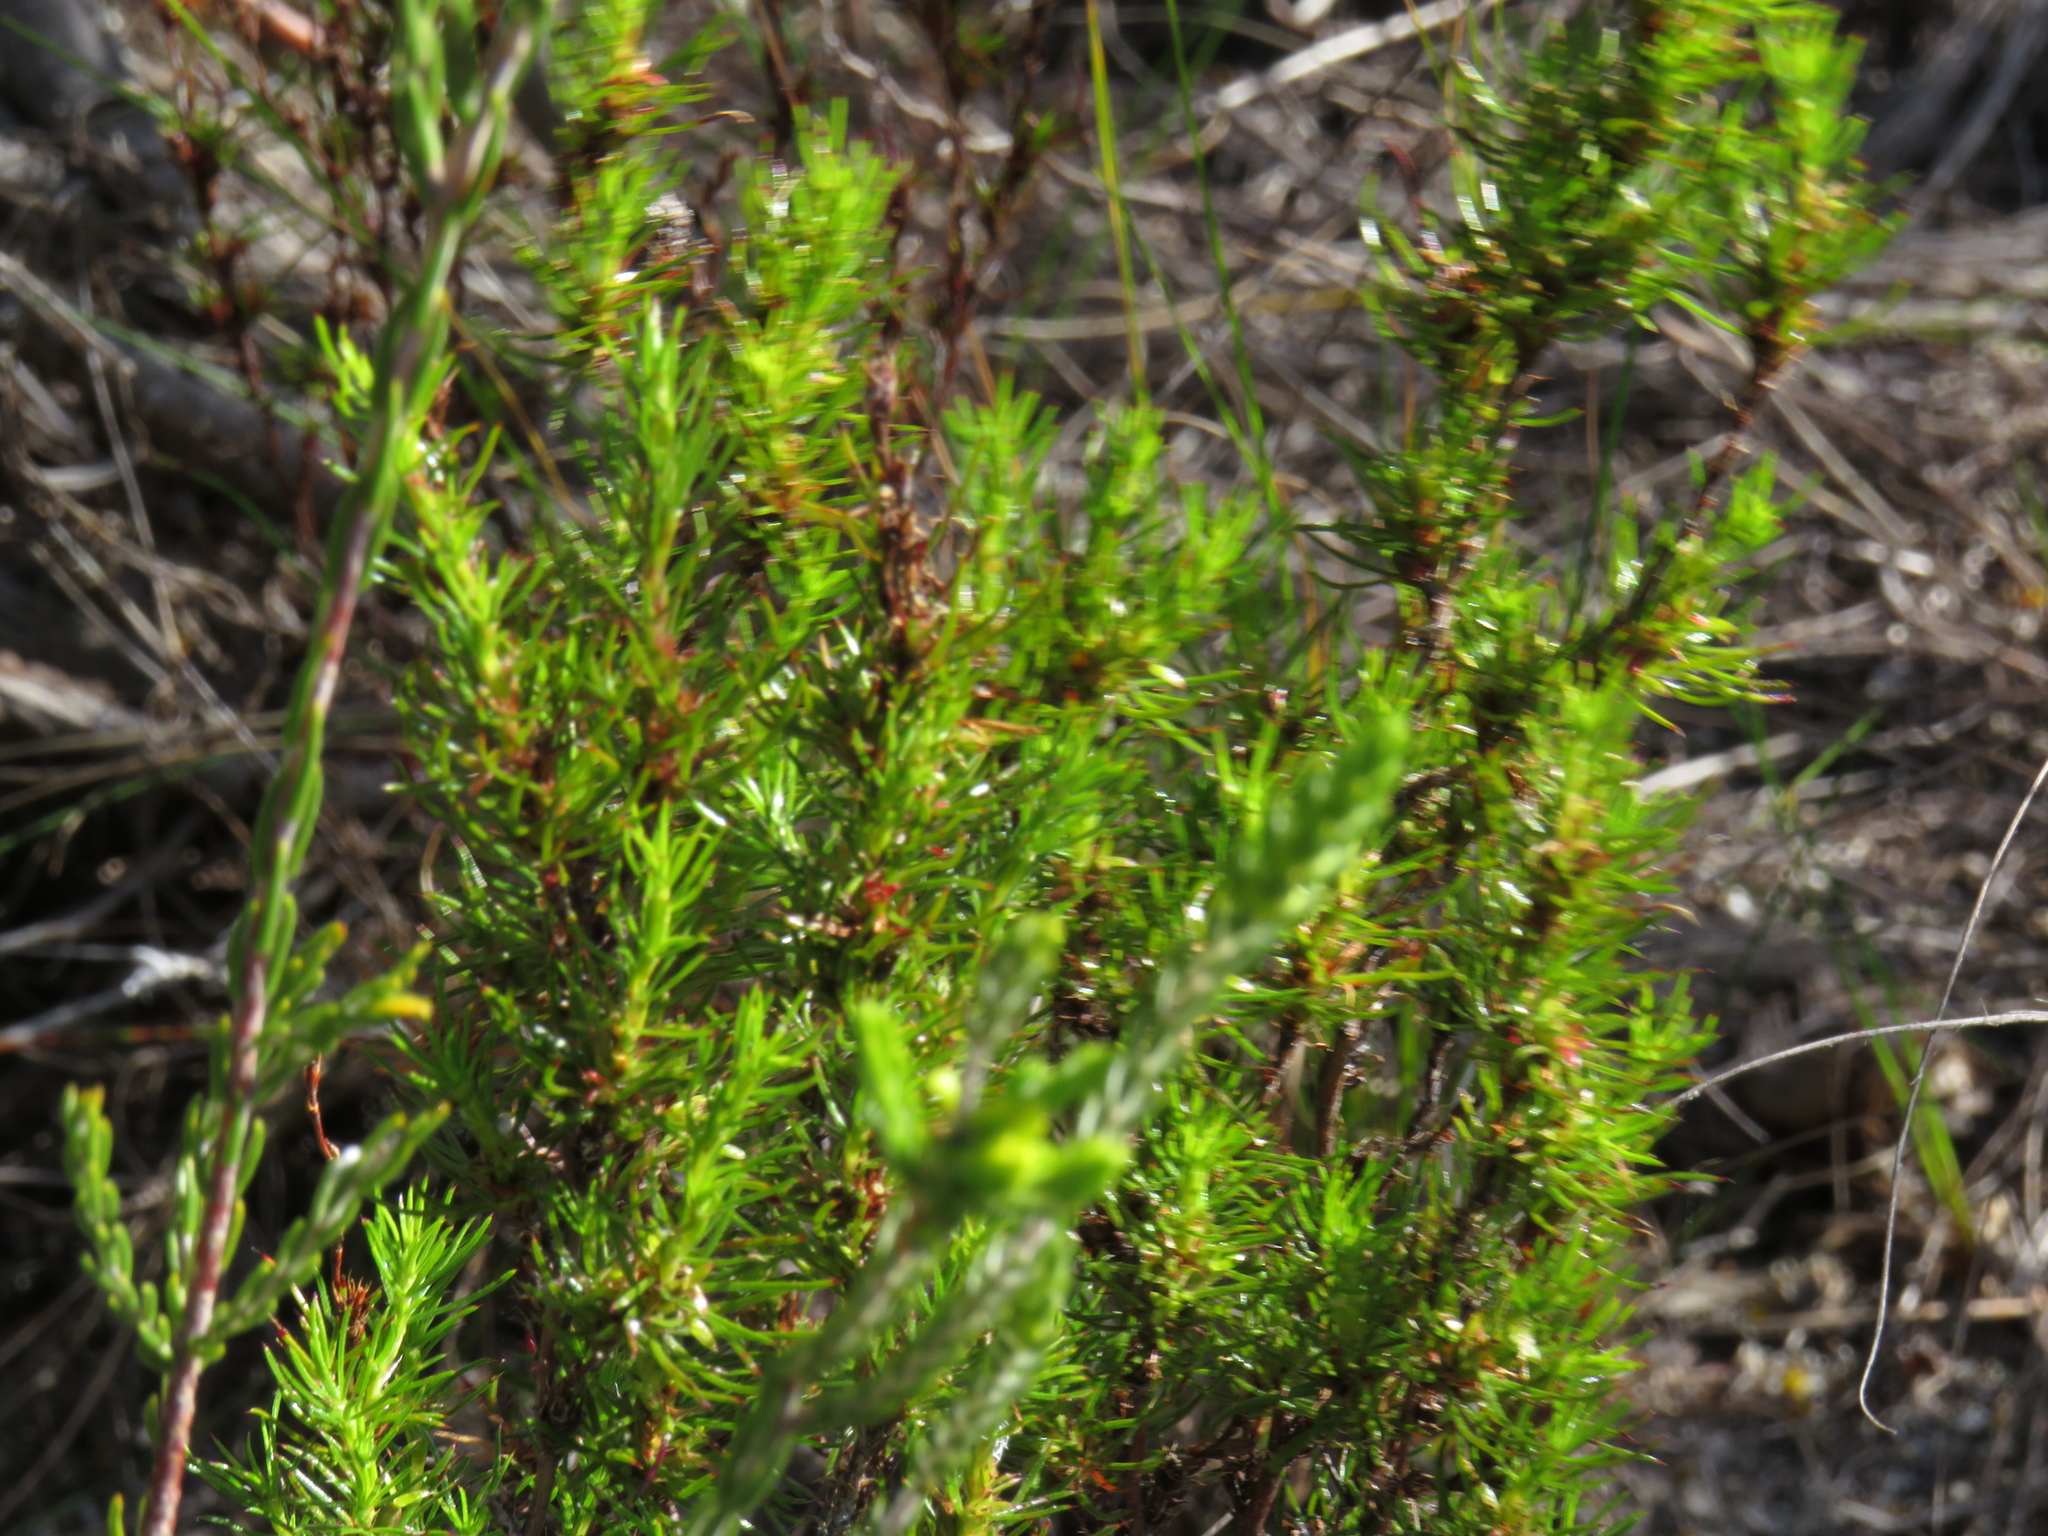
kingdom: Plantae
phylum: Tracheophyta
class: Magnoliopsida
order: Rosales
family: Rosaceae
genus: Cliffortia
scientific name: Cliffortia filifolia
